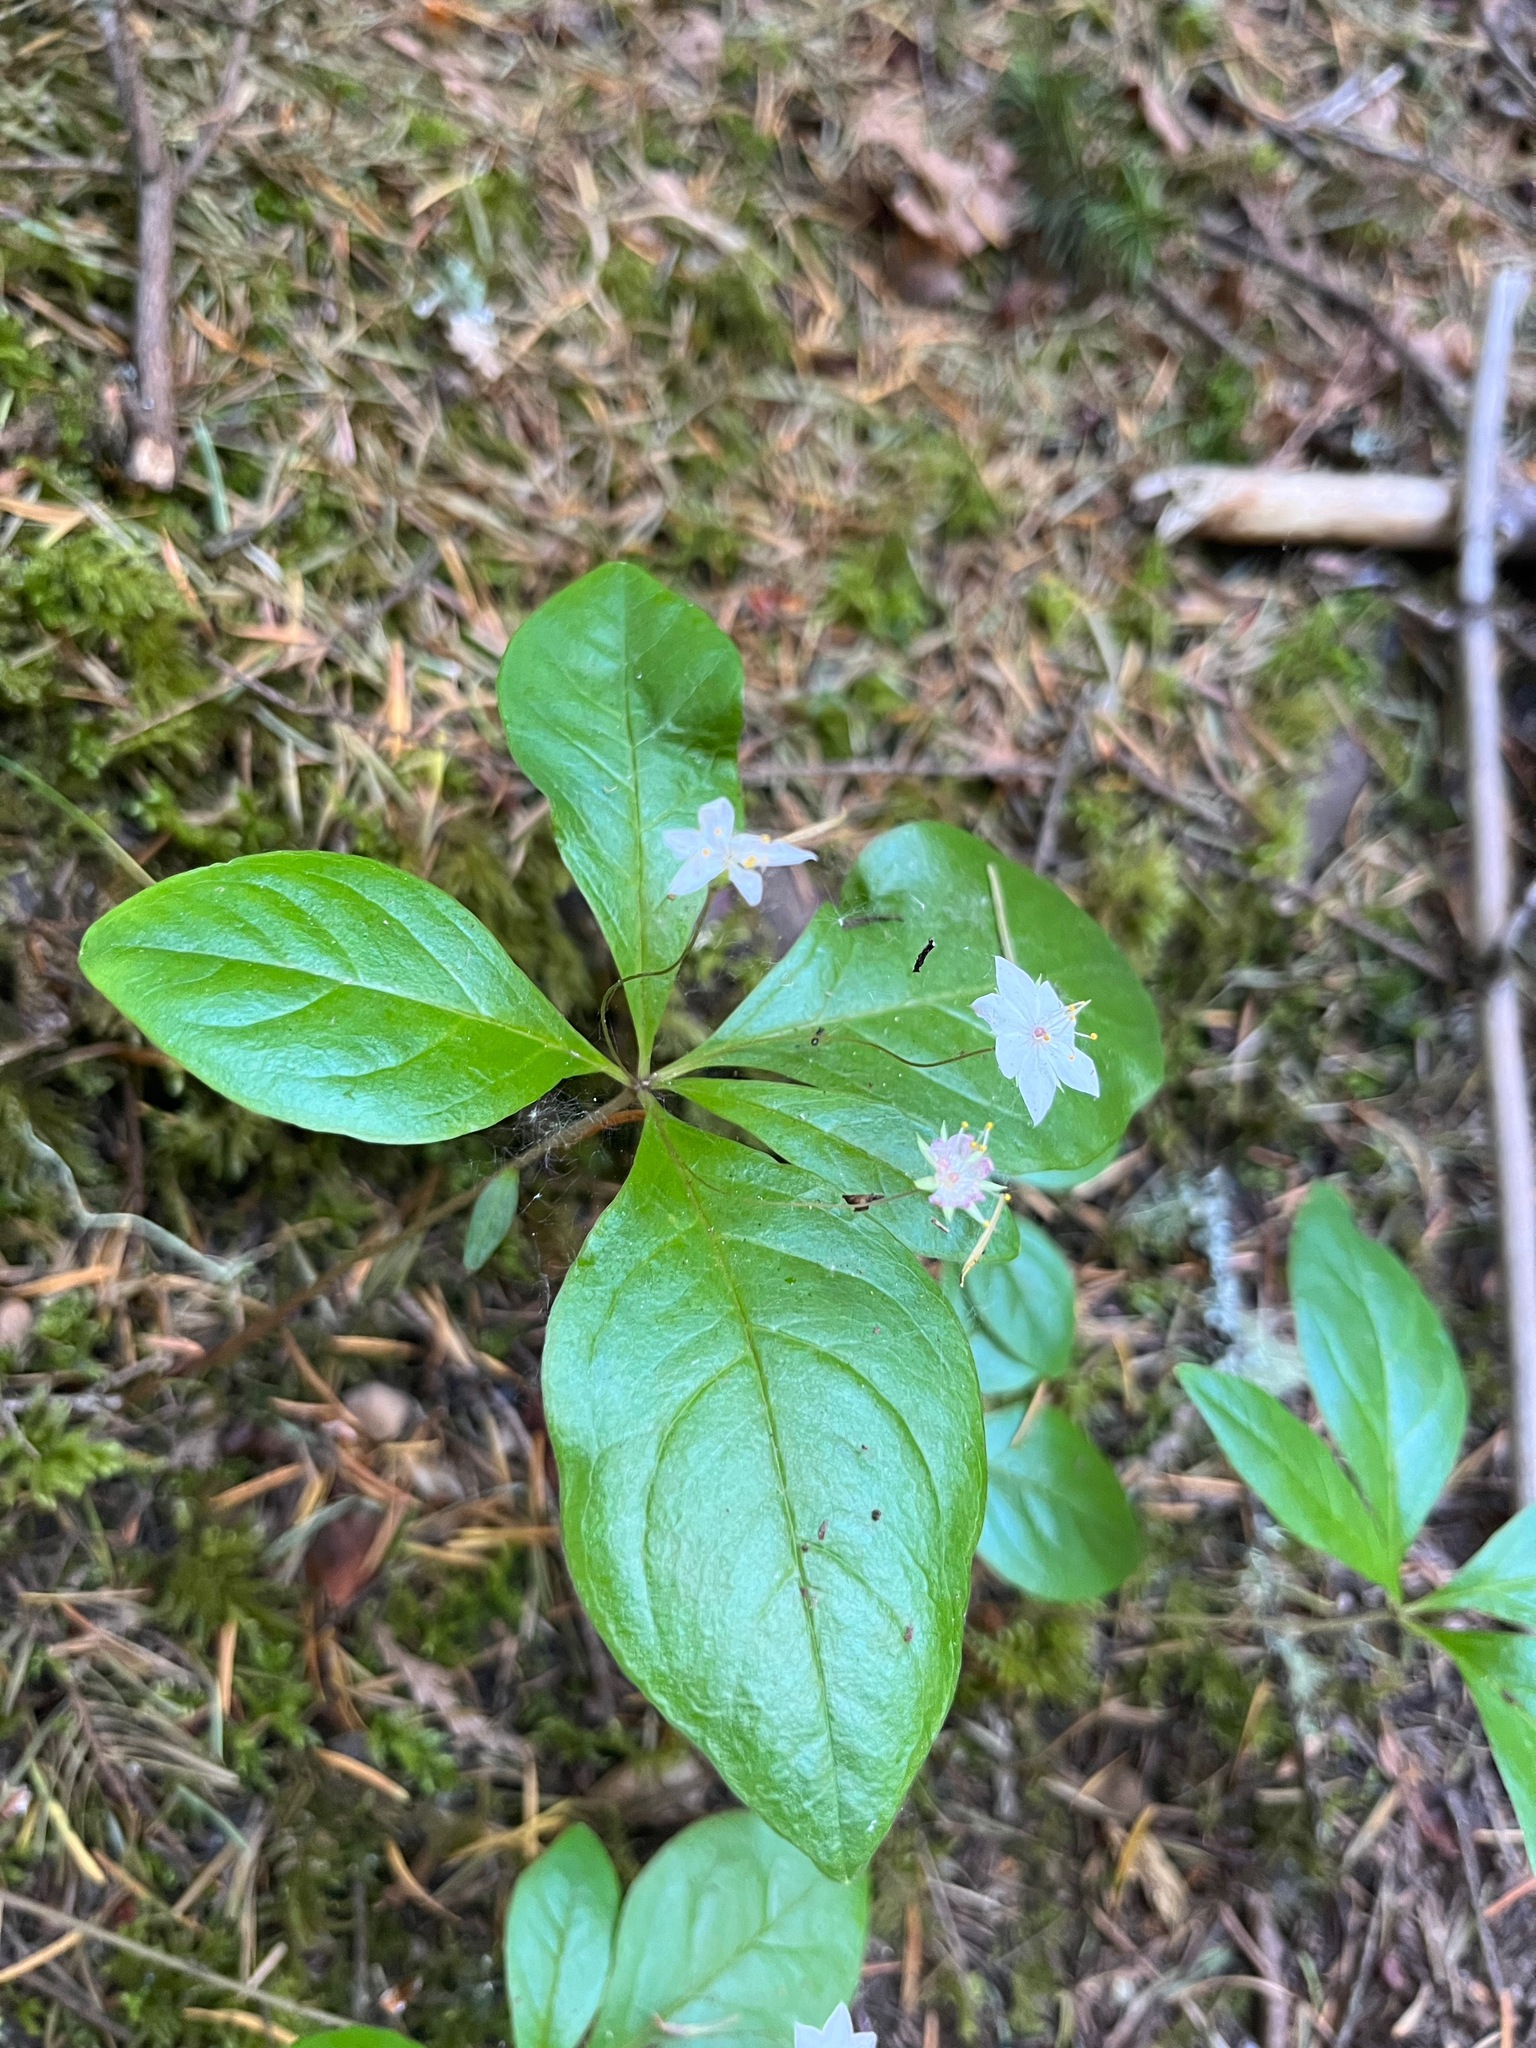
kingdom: Plantae
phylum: Tracheophyta
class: Magnoliopsida
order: Ericales
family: Primulaceae
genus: Lysimachia
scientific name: Lysimachia latifolia
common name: Pacific starflower
